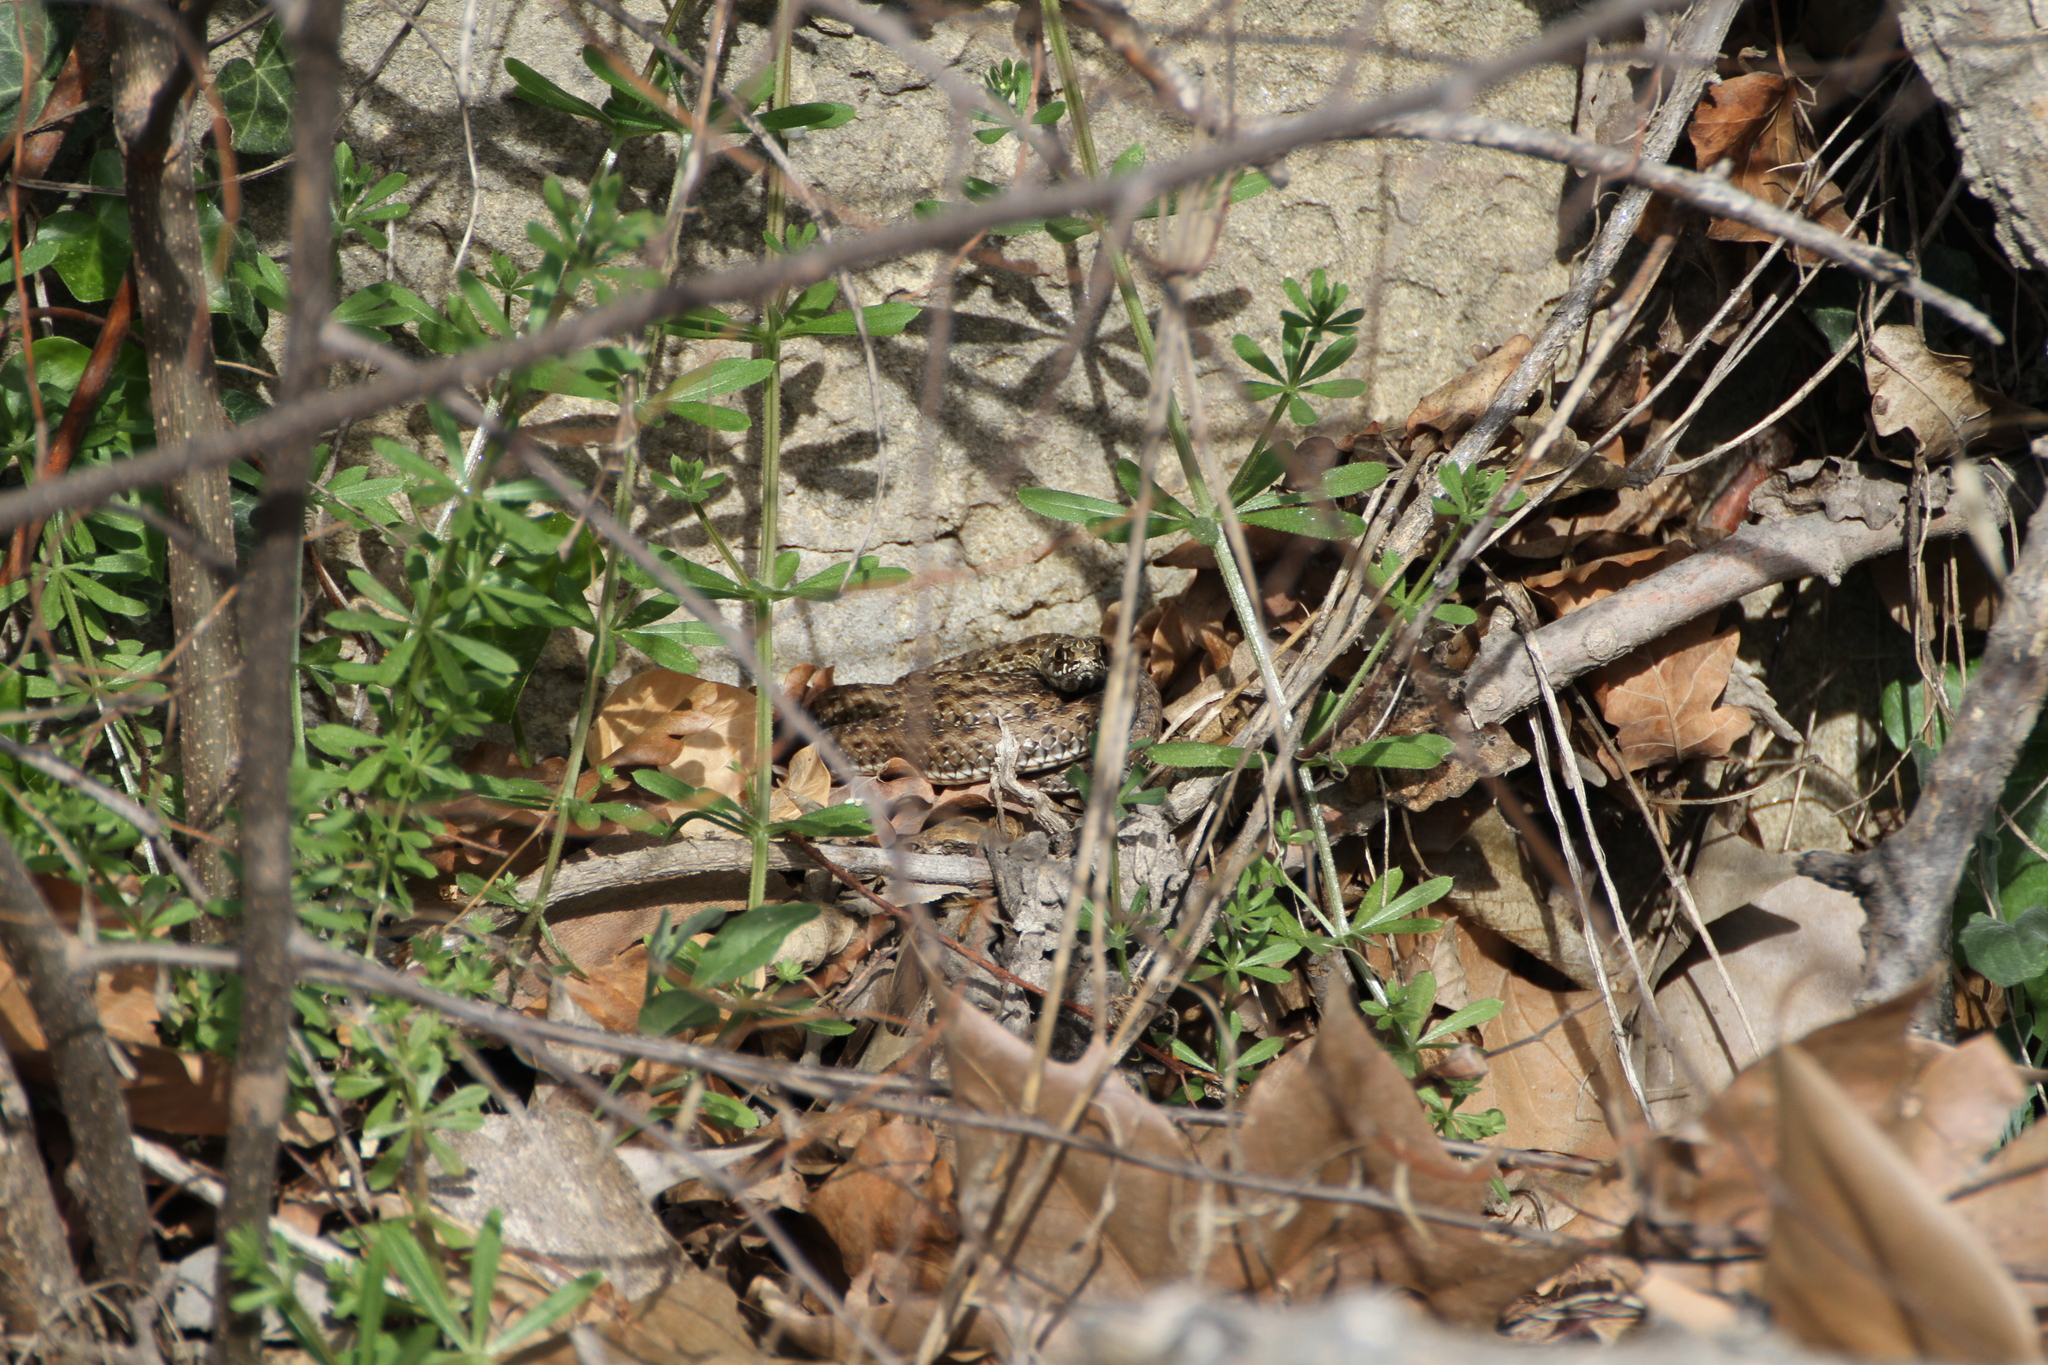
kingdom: Animalia
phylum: Chordata
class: Squamata
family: Psammophiidae
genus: Malpolon
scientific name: Malpolon monspessulanus
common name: Montpellier snake
